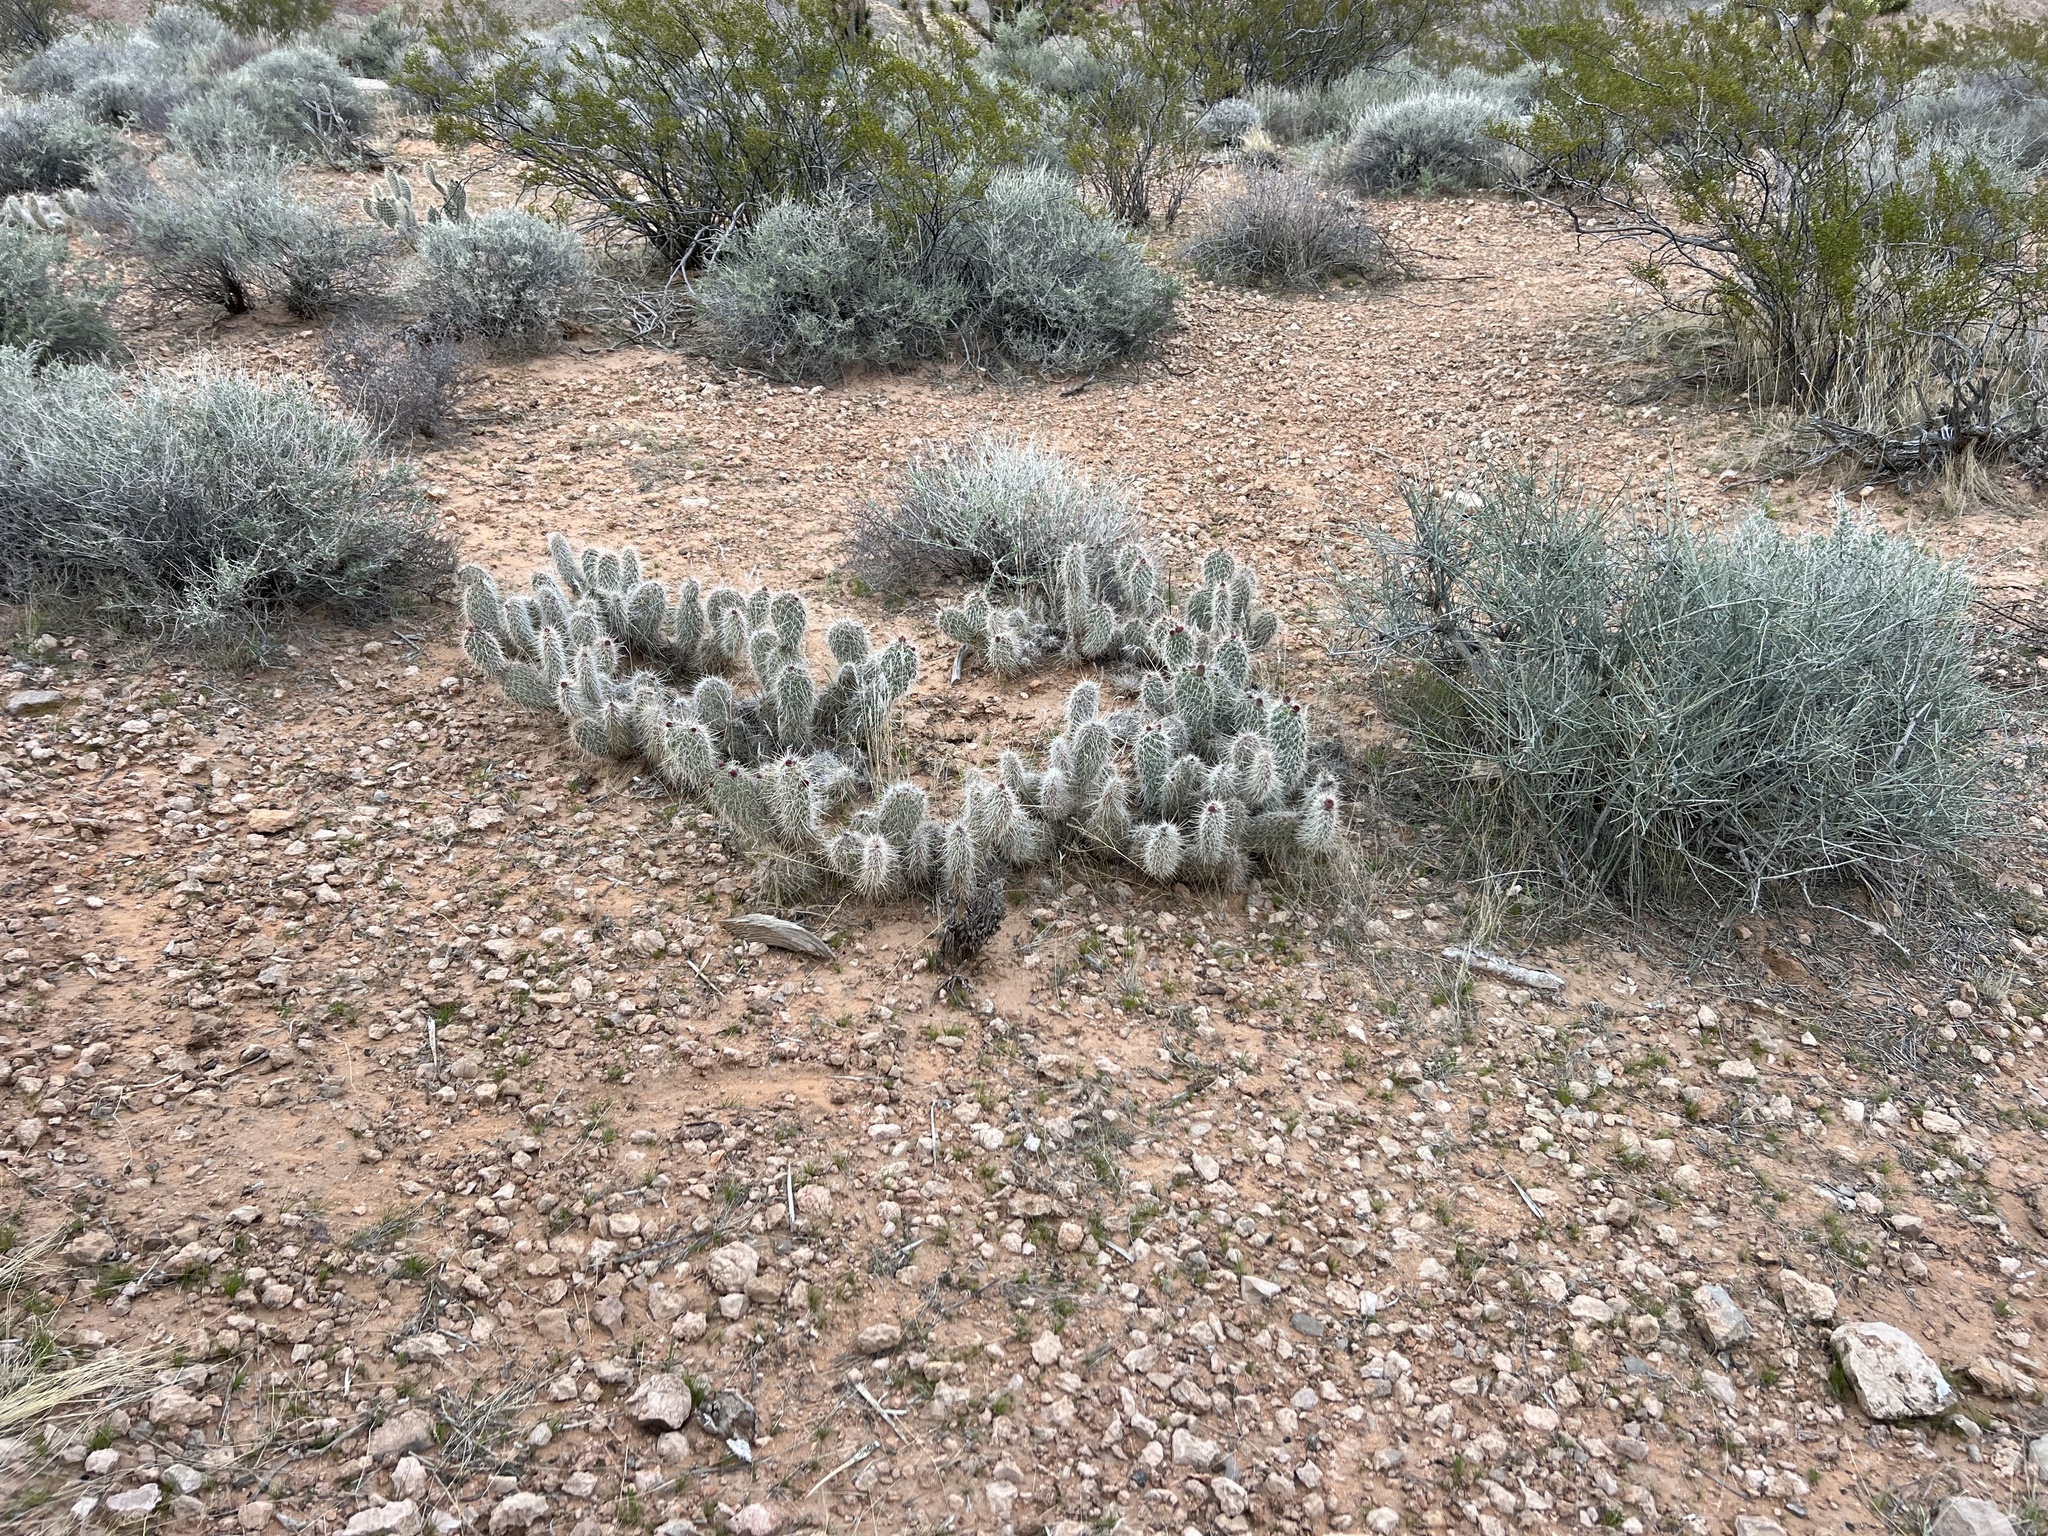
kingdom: Plantae
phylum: Tracheophyta
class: Magnoliopsida
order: Caryophyllales
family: Cactaceae
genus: Opuntia
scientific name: Opuntia polyacantha
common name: Plains prickly-pear
